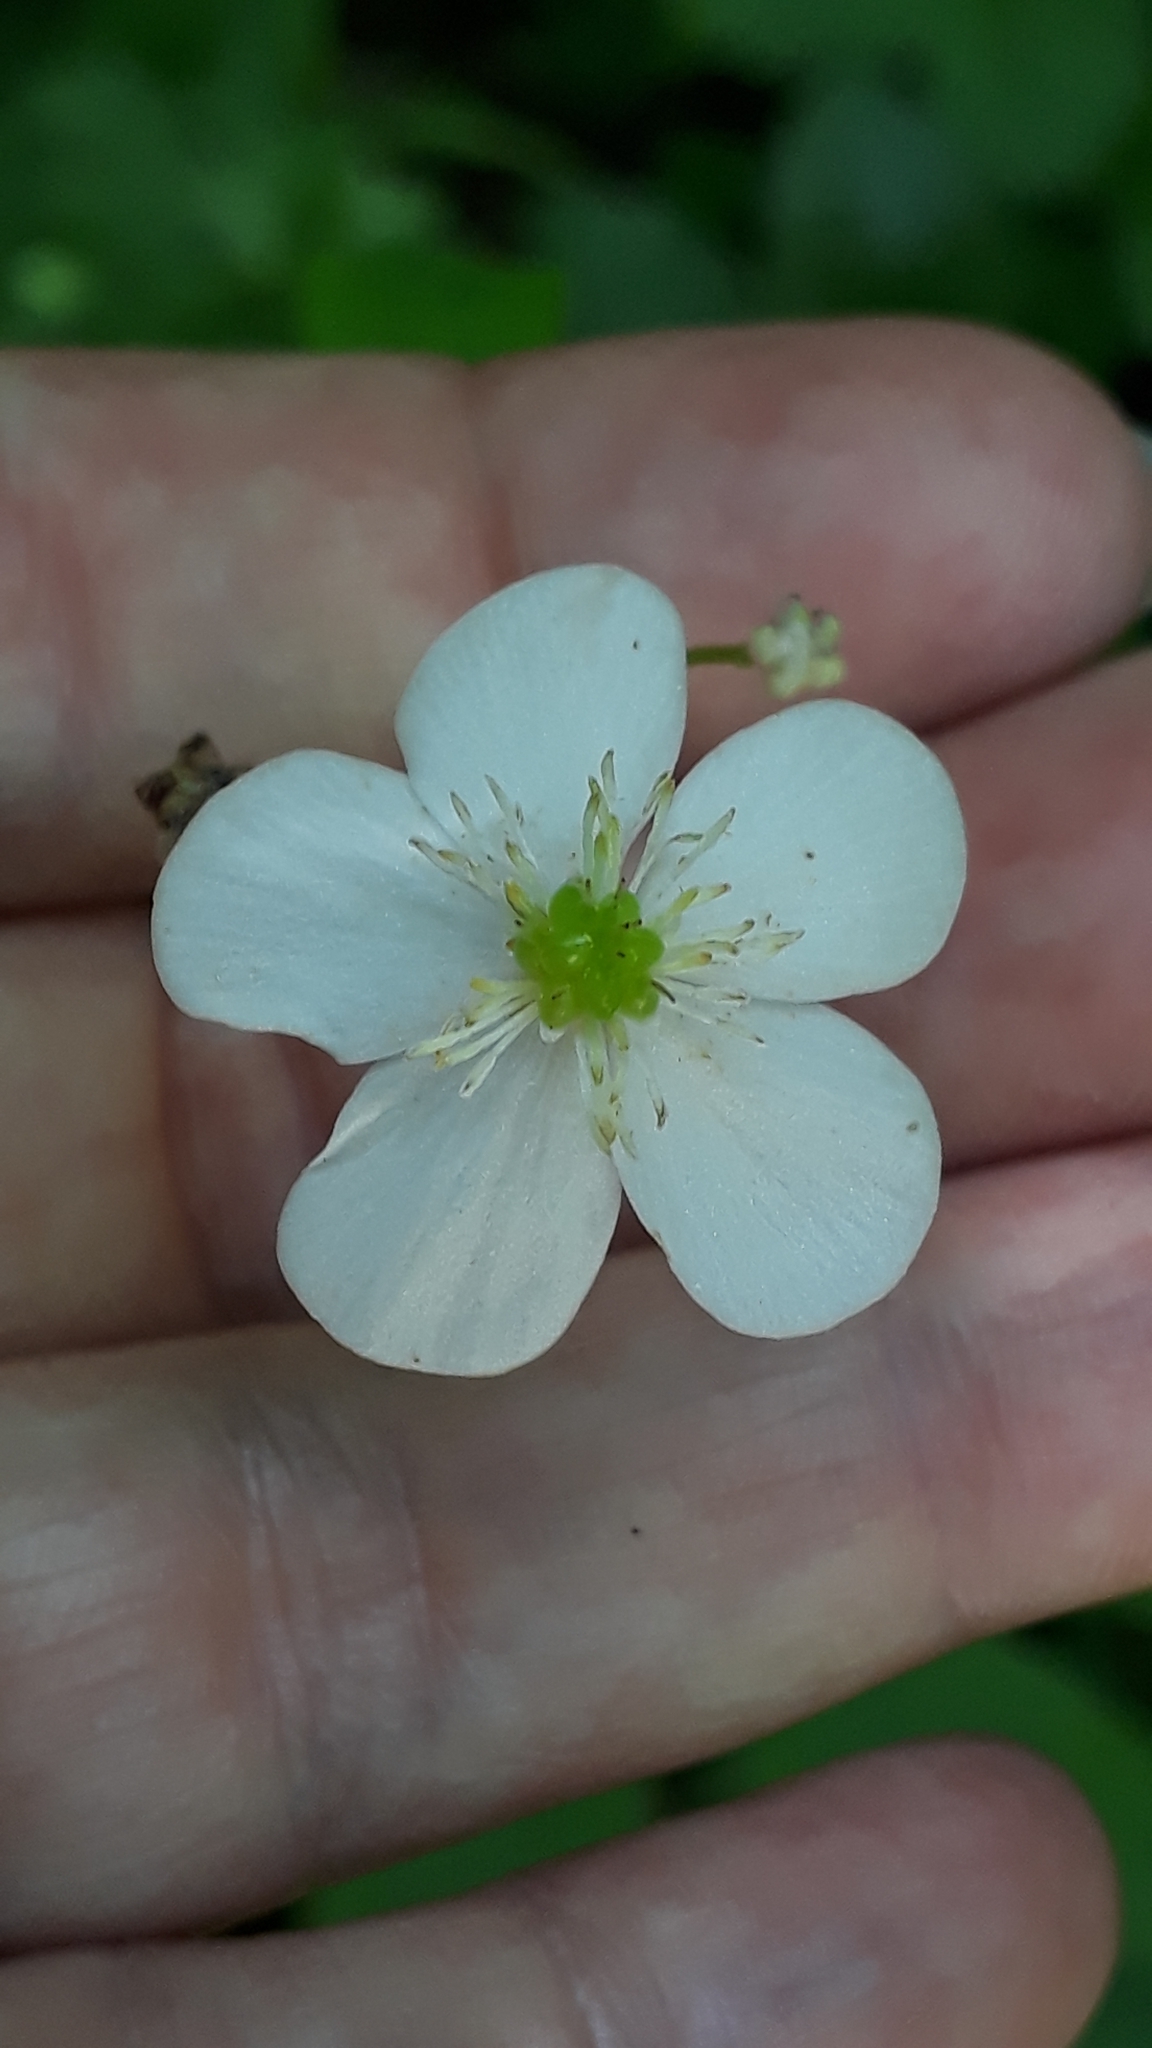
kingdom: Plantae
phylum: Tracheophyta
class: Magnoliopsida
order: Ranunculales
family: Ranunculaceae
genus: Ranunculus
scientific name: Ranunculus platanifolius
